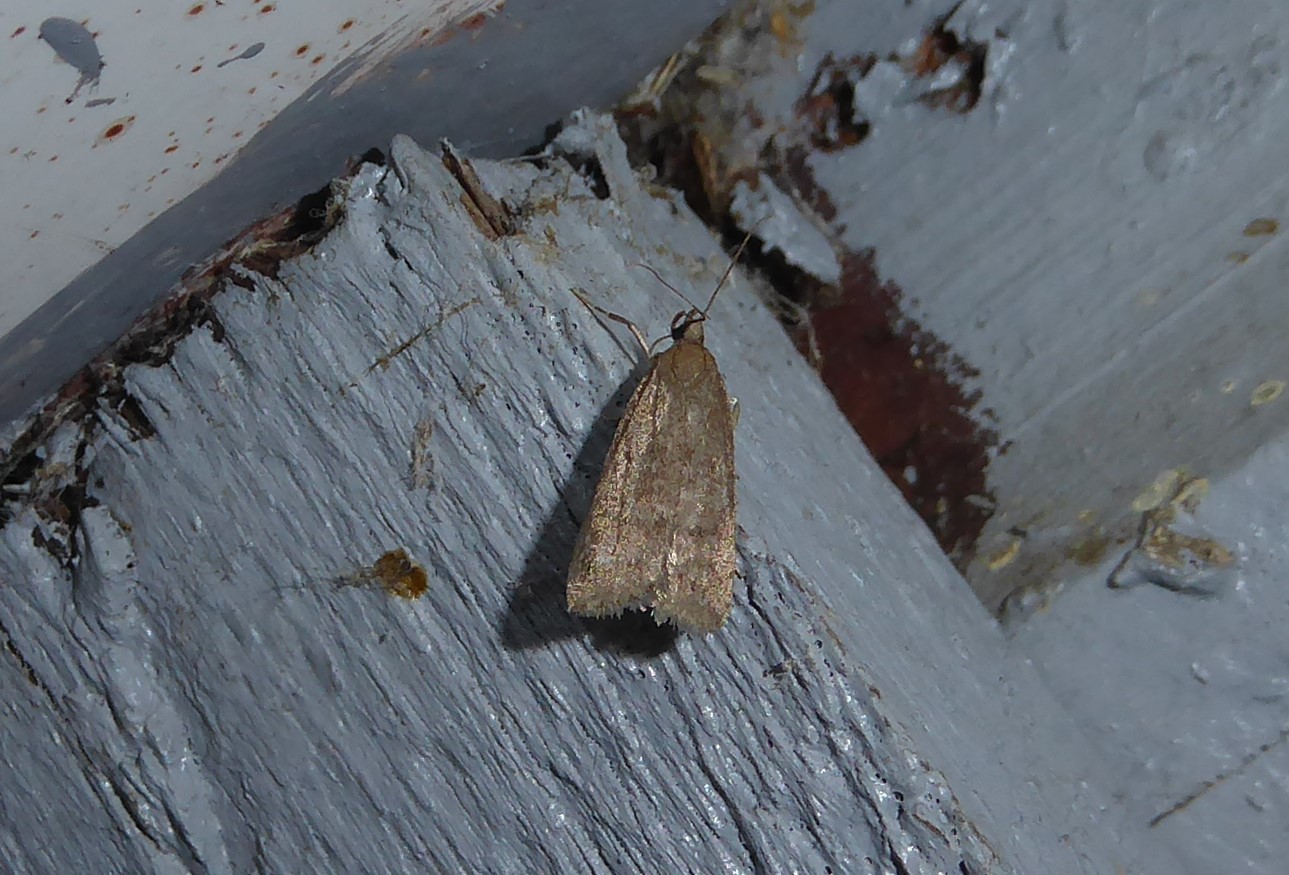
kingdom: Animalia
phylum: Arthropoda
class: Insecta
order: Lepidoptera
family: Depressariidae
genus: Phaeosaces
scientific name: Phaeosaces apocrypta
